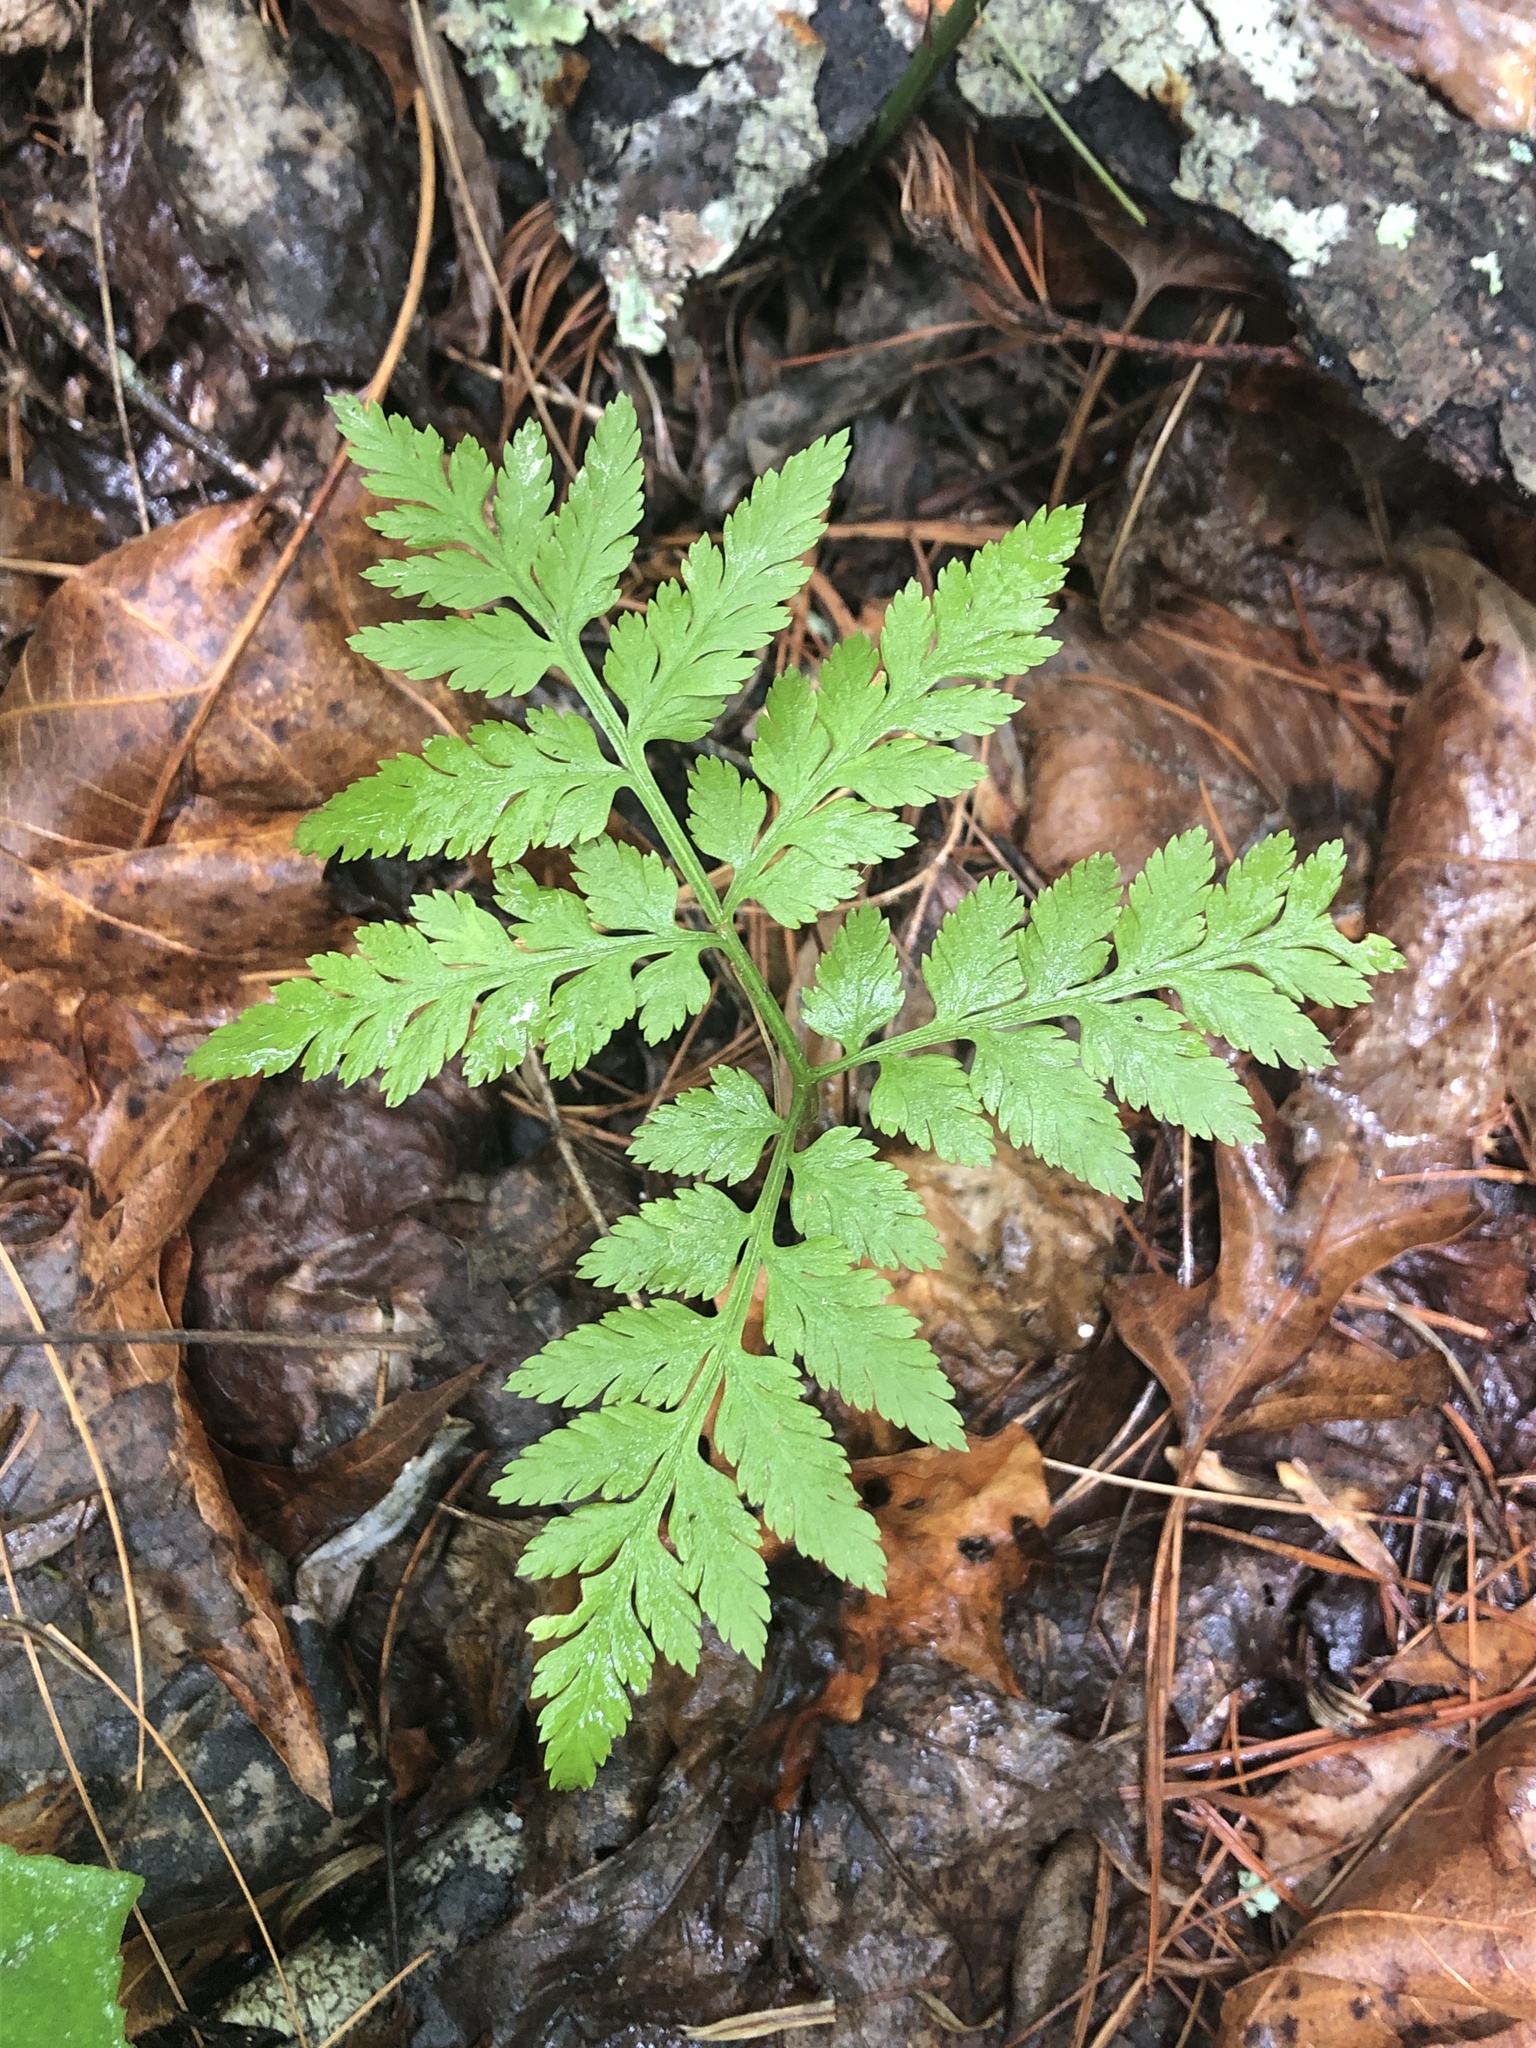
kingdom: Plantae
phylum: Tracheophyta
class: Polypodiopsida
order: Ophioglossales
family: Ophioglossaceae
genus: Botrypus
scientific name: Botrypus virginianus
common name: Common grapefern
